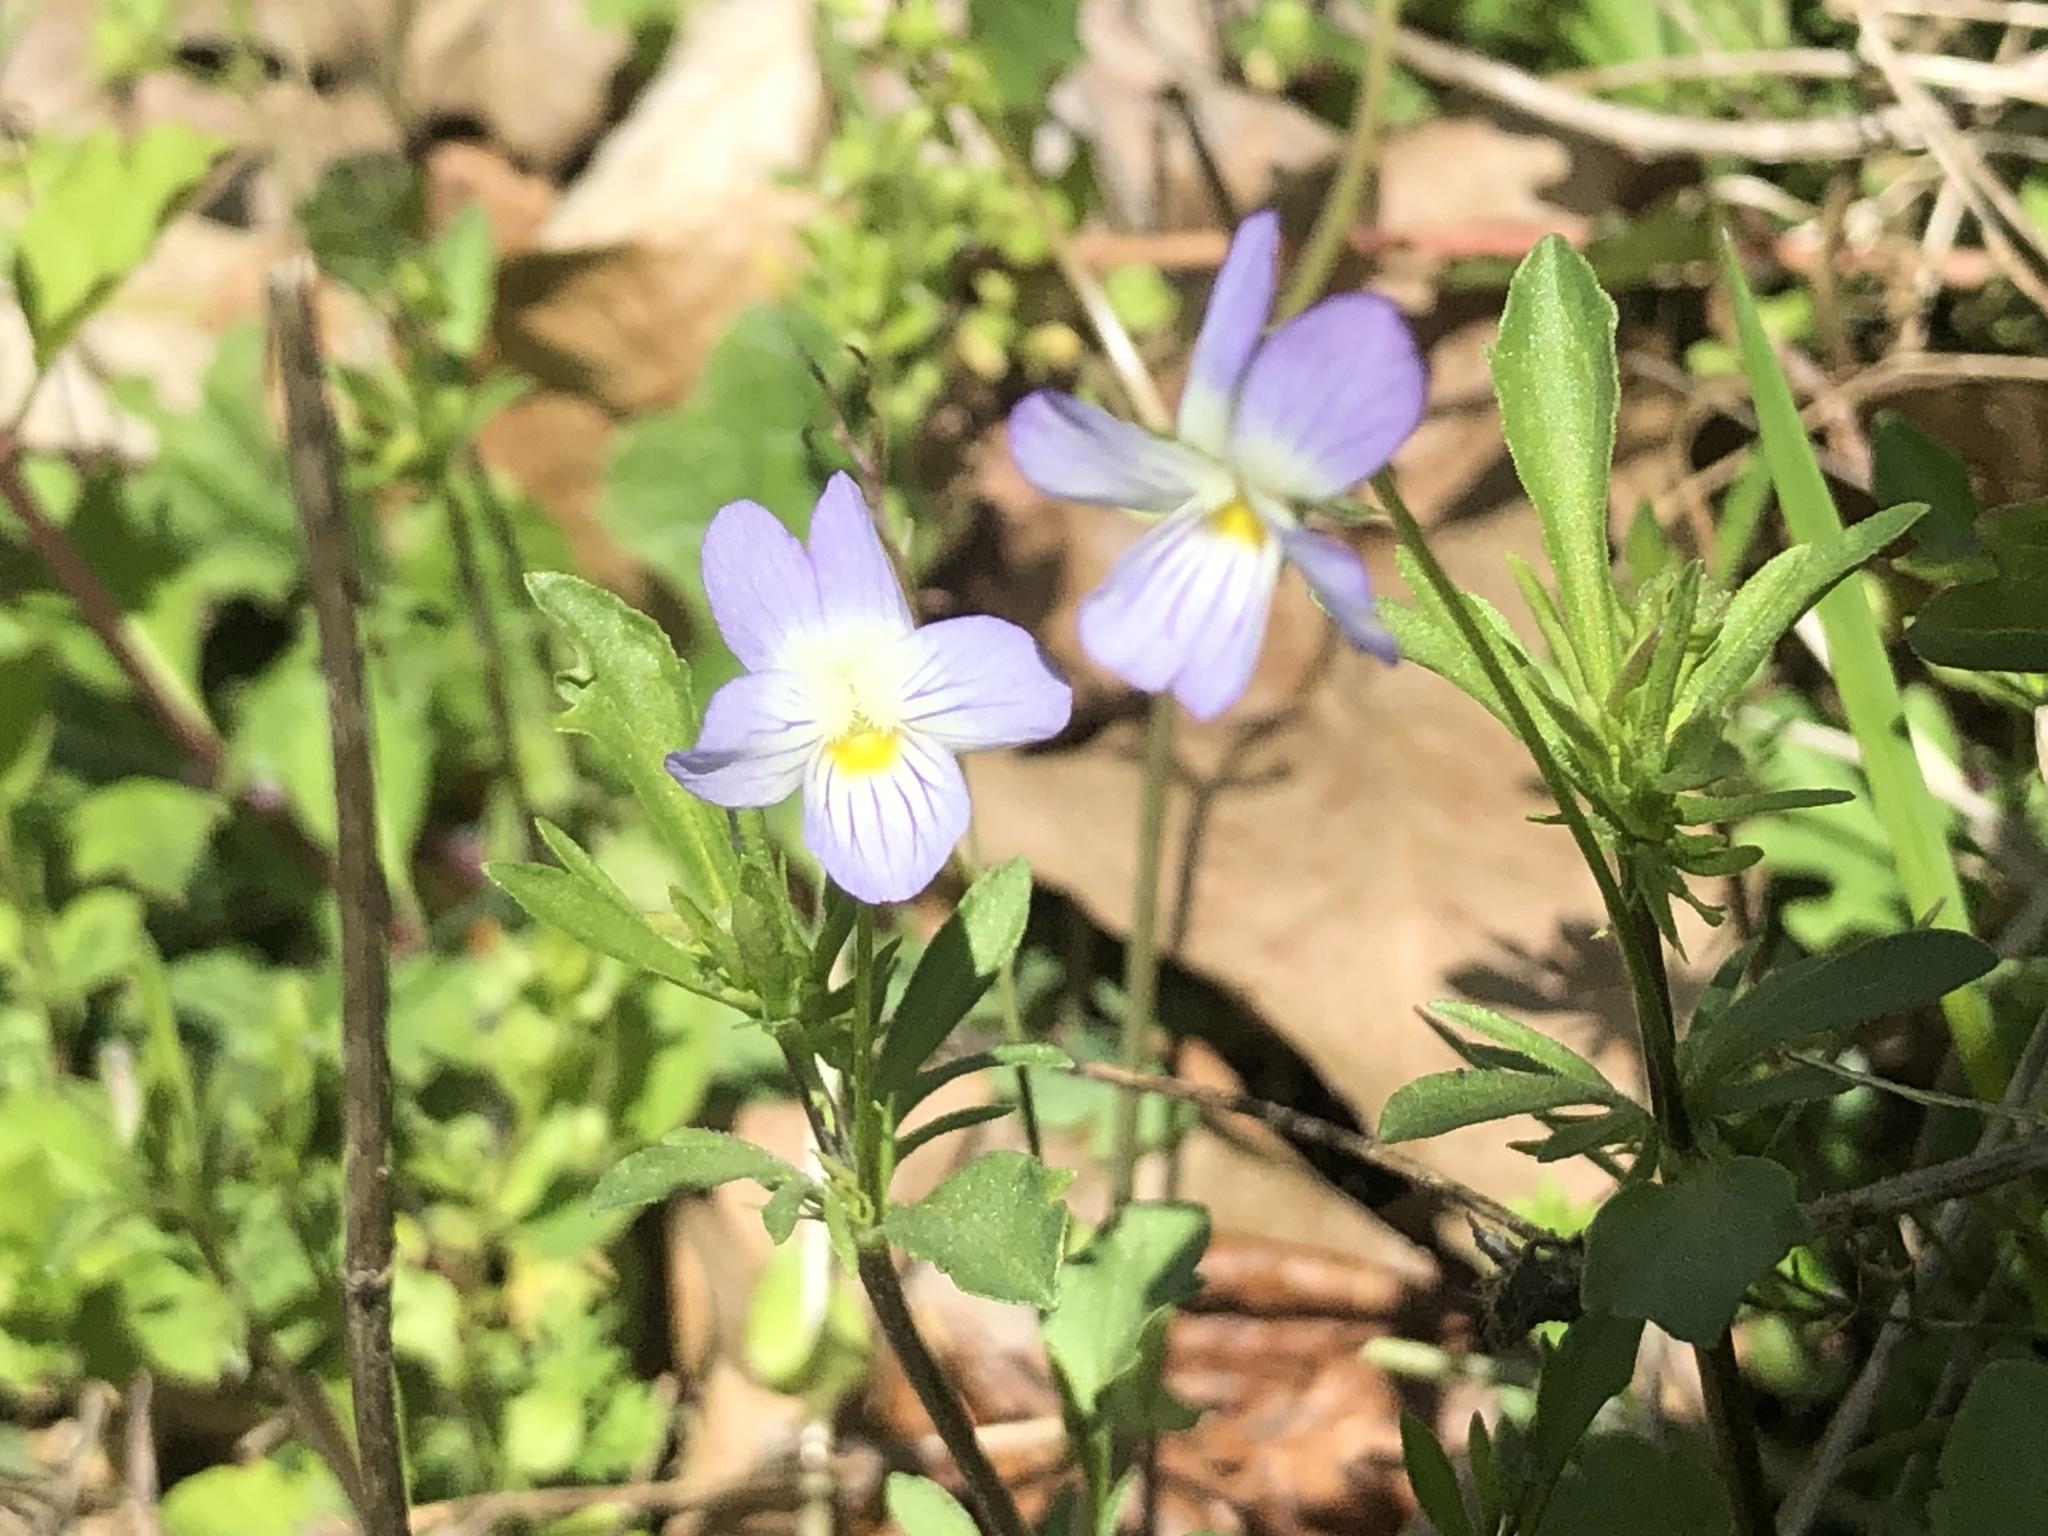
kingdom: Plantae
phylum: Tracheophyta
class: Magnoliopsida
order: Malpighiales
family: Violaceae
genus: Viola
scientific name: Viola rafinesquei
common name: American field pansy
